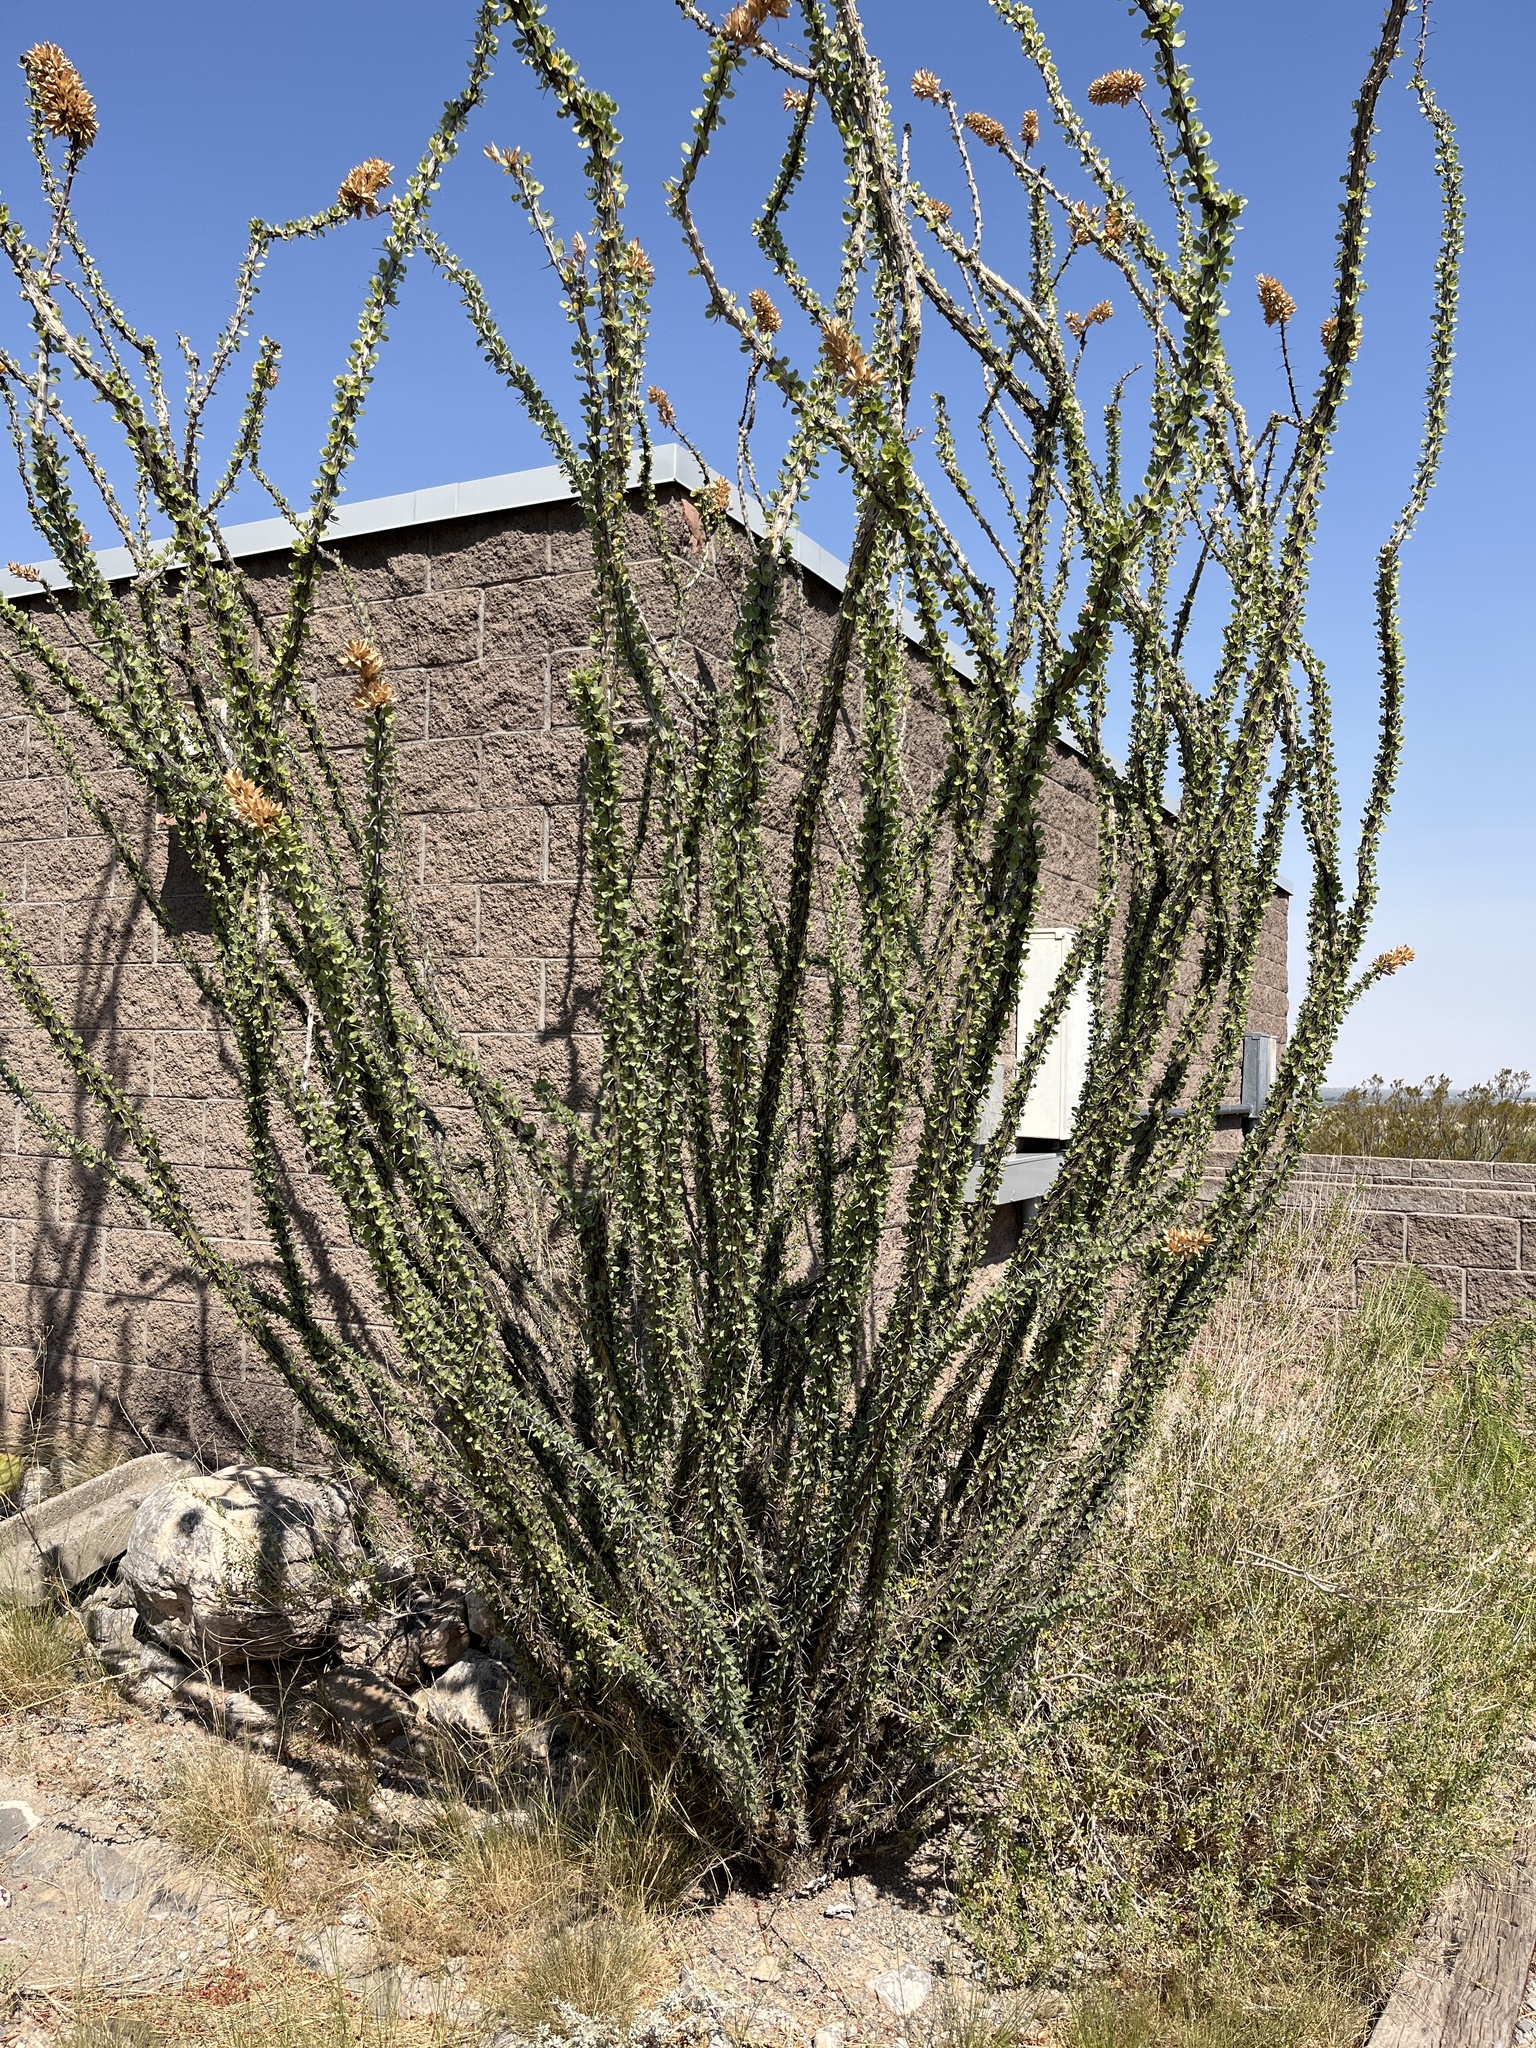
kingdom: Plantae
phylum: Tracheophyta
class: Magnoliopsida
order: Ericales
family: Fouquieriaceae
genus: Fouquieria
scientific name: Fouquieria splendens
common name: Vine-cactus
